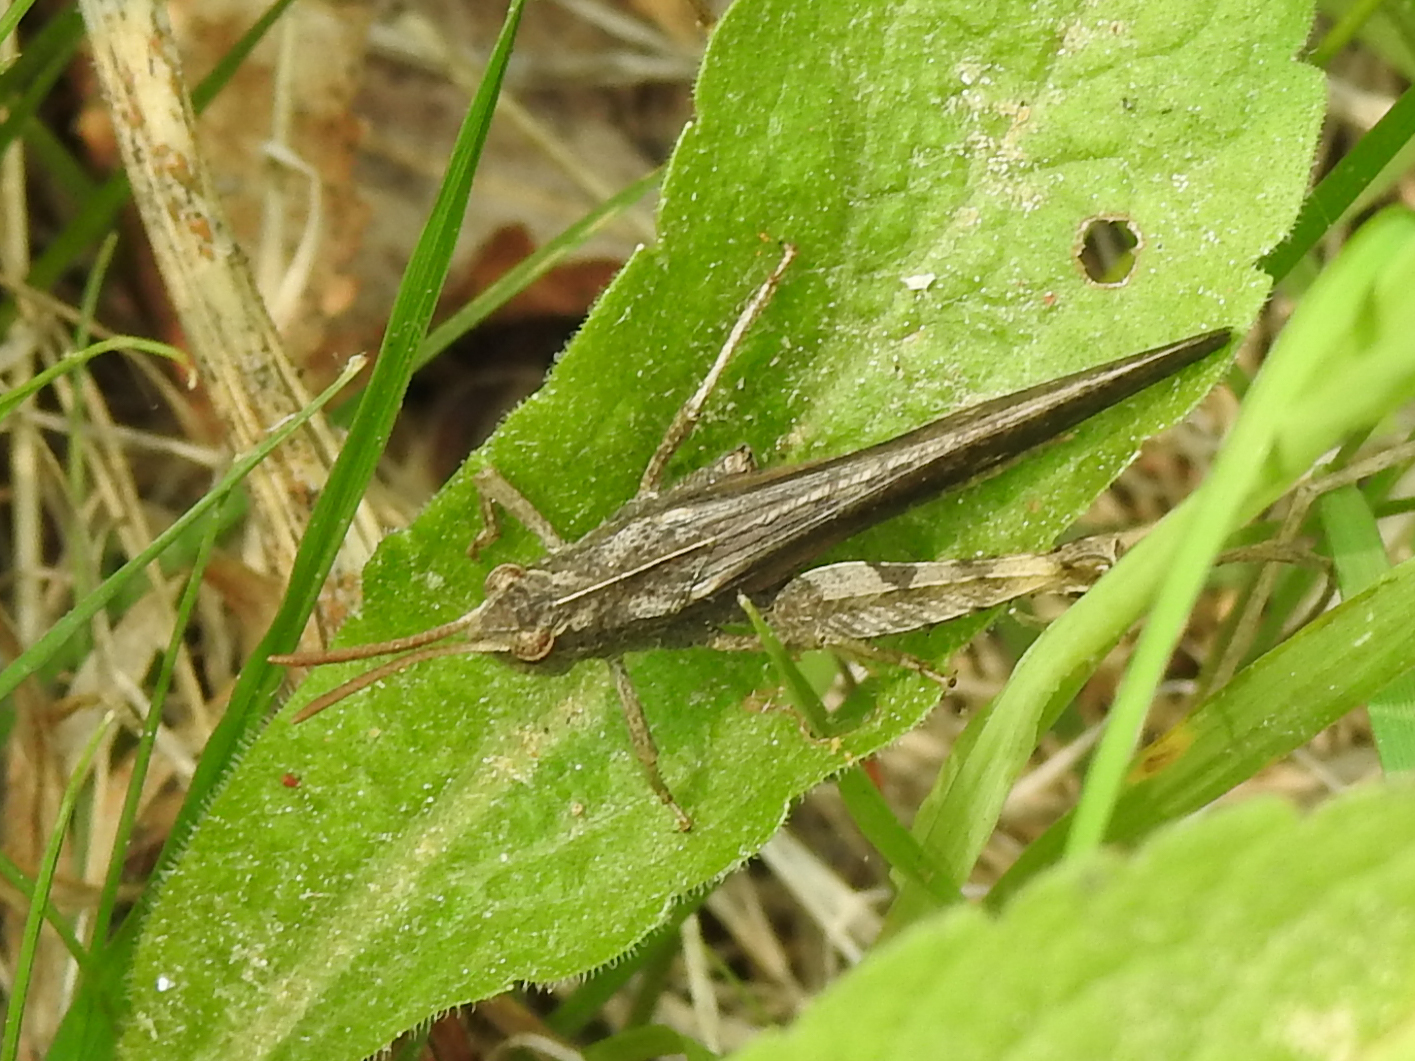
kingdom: Animalia
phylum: Arthropoda
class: Insecta
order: Orthoptera
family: Acrididae
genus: Chortophaga
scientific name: Chortophaga viridifasciata
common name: Green-striped grasshopper
